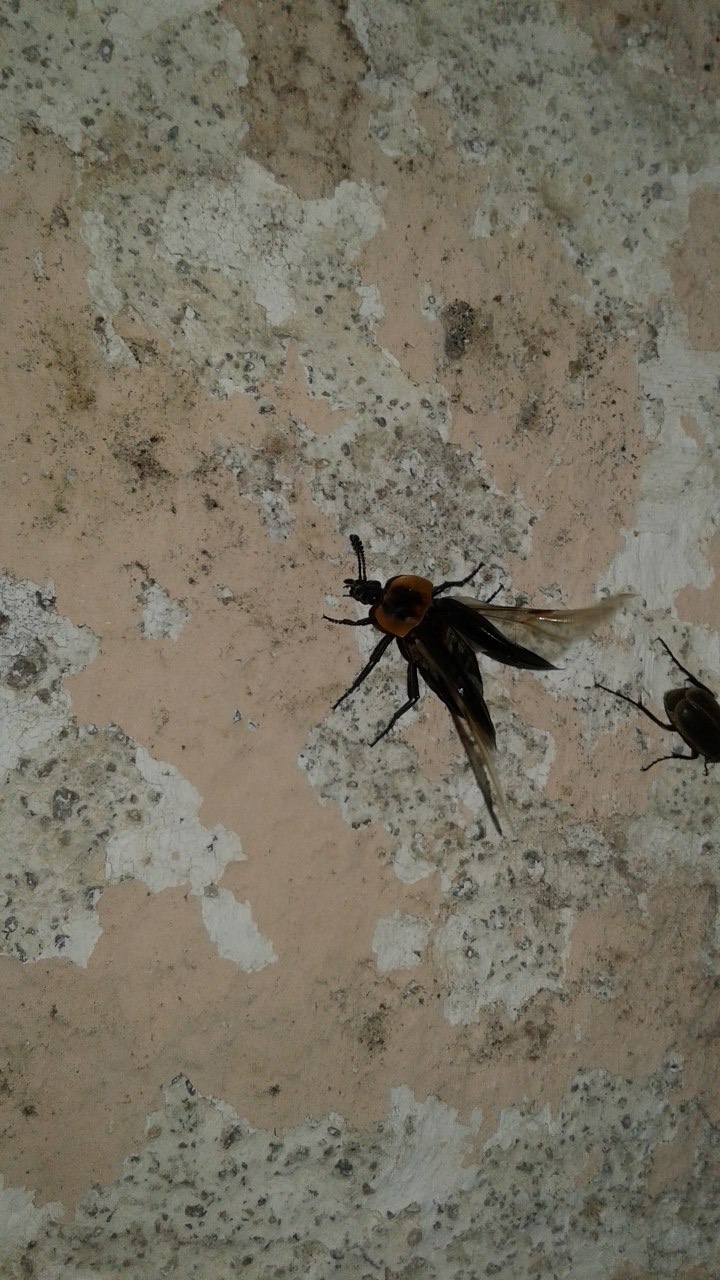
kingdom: Animalia
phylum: Arthropoda
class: Insecta
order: Coleoptera
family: Staphylinidae
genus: Oxelytrum
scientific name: Oxelytrum discicolle
